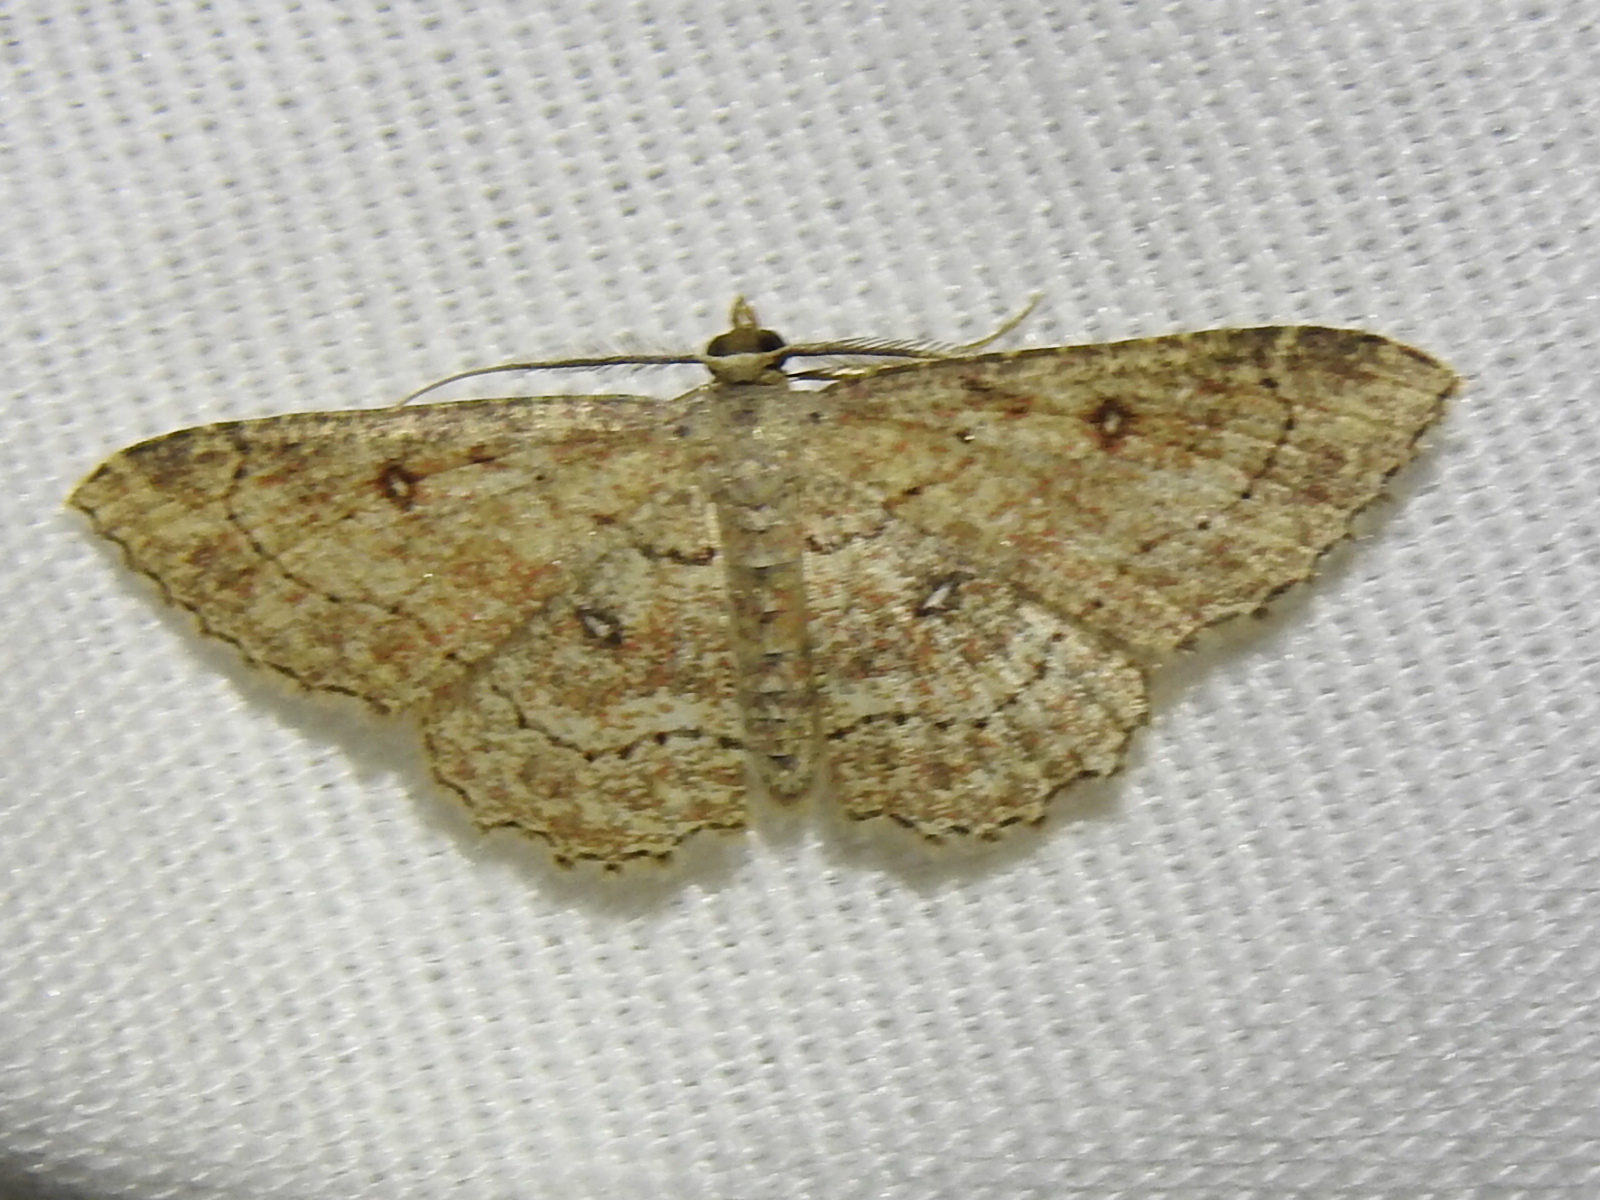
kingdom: Animalia
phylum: Arthropoda
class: Insecta
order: Lepidoptera
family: Geometridae
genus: Cyclophora
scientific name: Cyclophora nanaria
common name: Cankerworm
